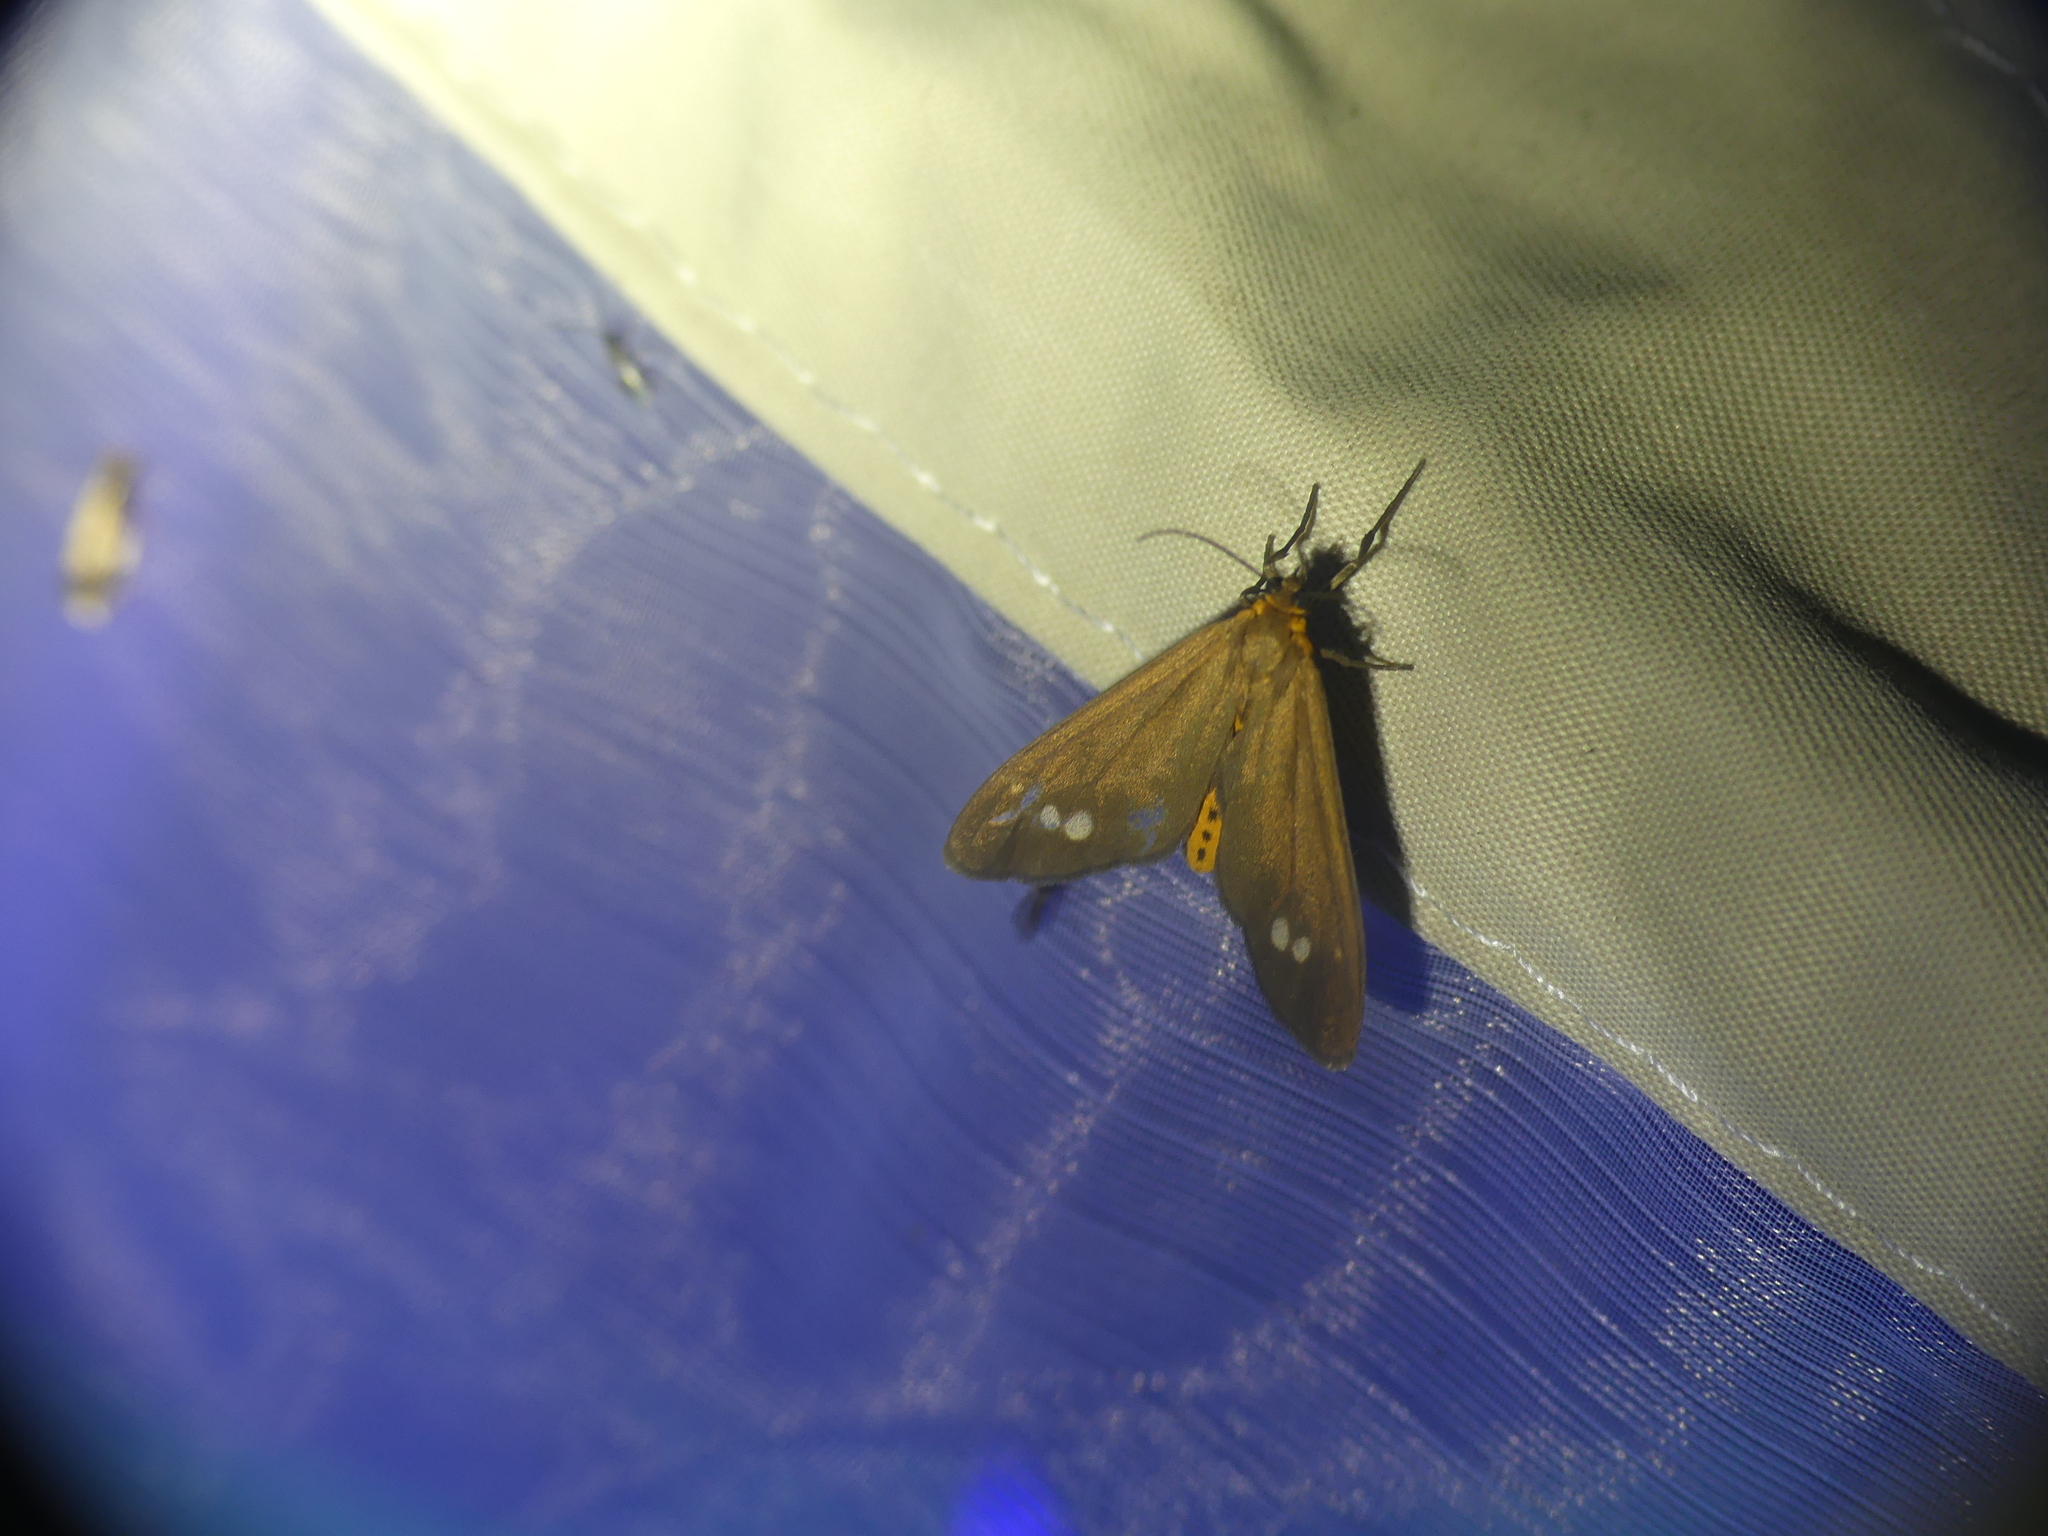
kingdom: Animalia
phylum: Arthropoda
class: Insecta
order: Lepidoptera
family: Erebidae
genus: Dysauxes
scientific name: Dysauxes ancilla
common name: The handmaid
